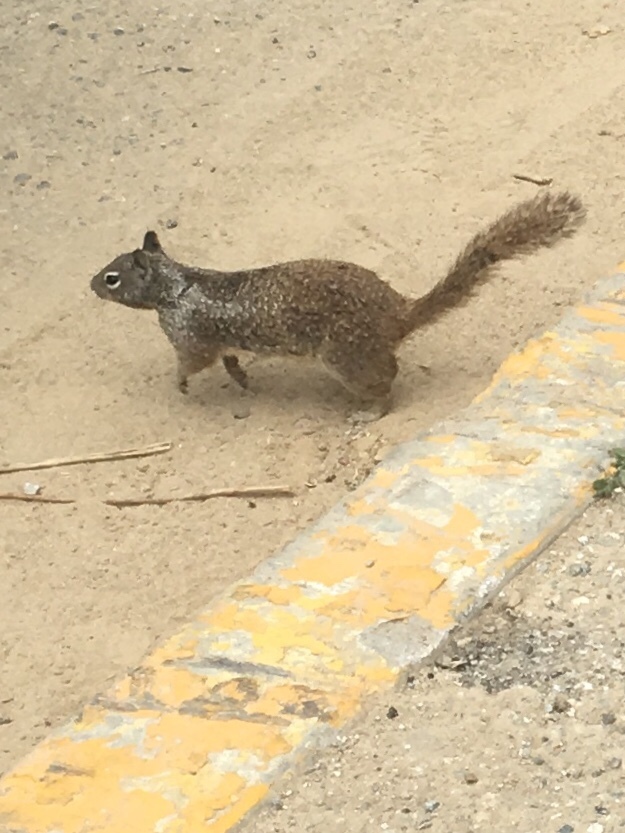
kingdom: Animalia
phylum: Chordata
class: Mammalia
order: Rodentia
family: Sciuridae
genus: Otospermophilus
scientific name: Otospermophilus beecheyi
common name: California ground squirrel
